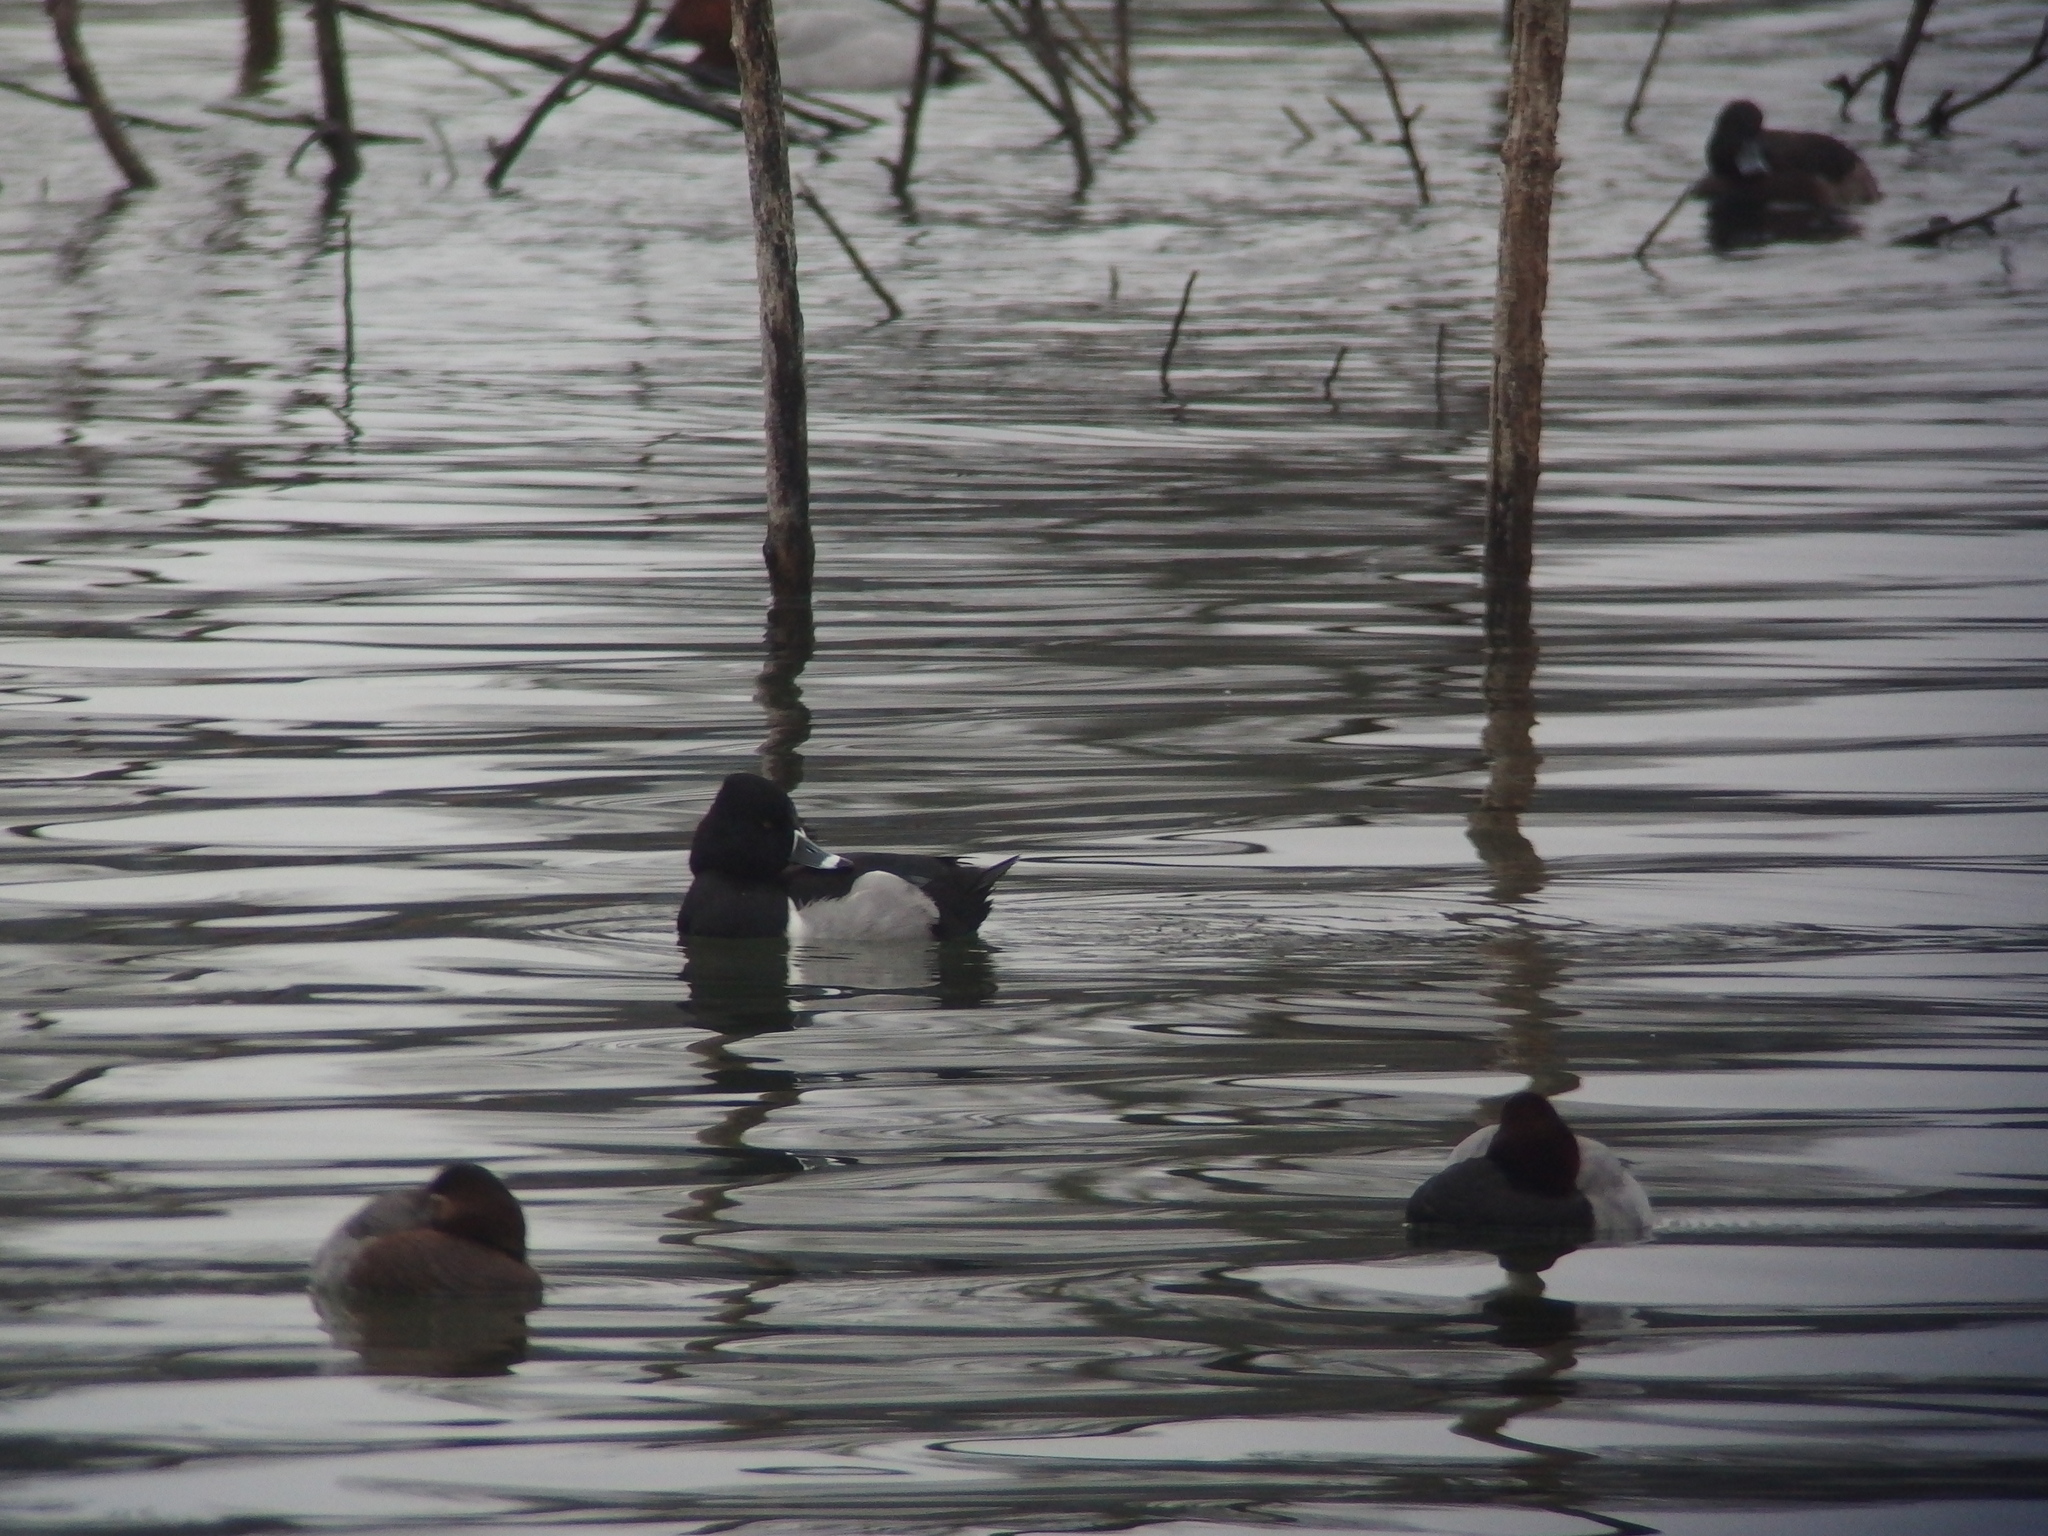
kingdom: Animalia
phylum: Chordata
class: Aves
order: Anseriformes
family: Anatidae
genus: Aythya
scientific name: Aythya collaris
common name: Ring-necked duck
